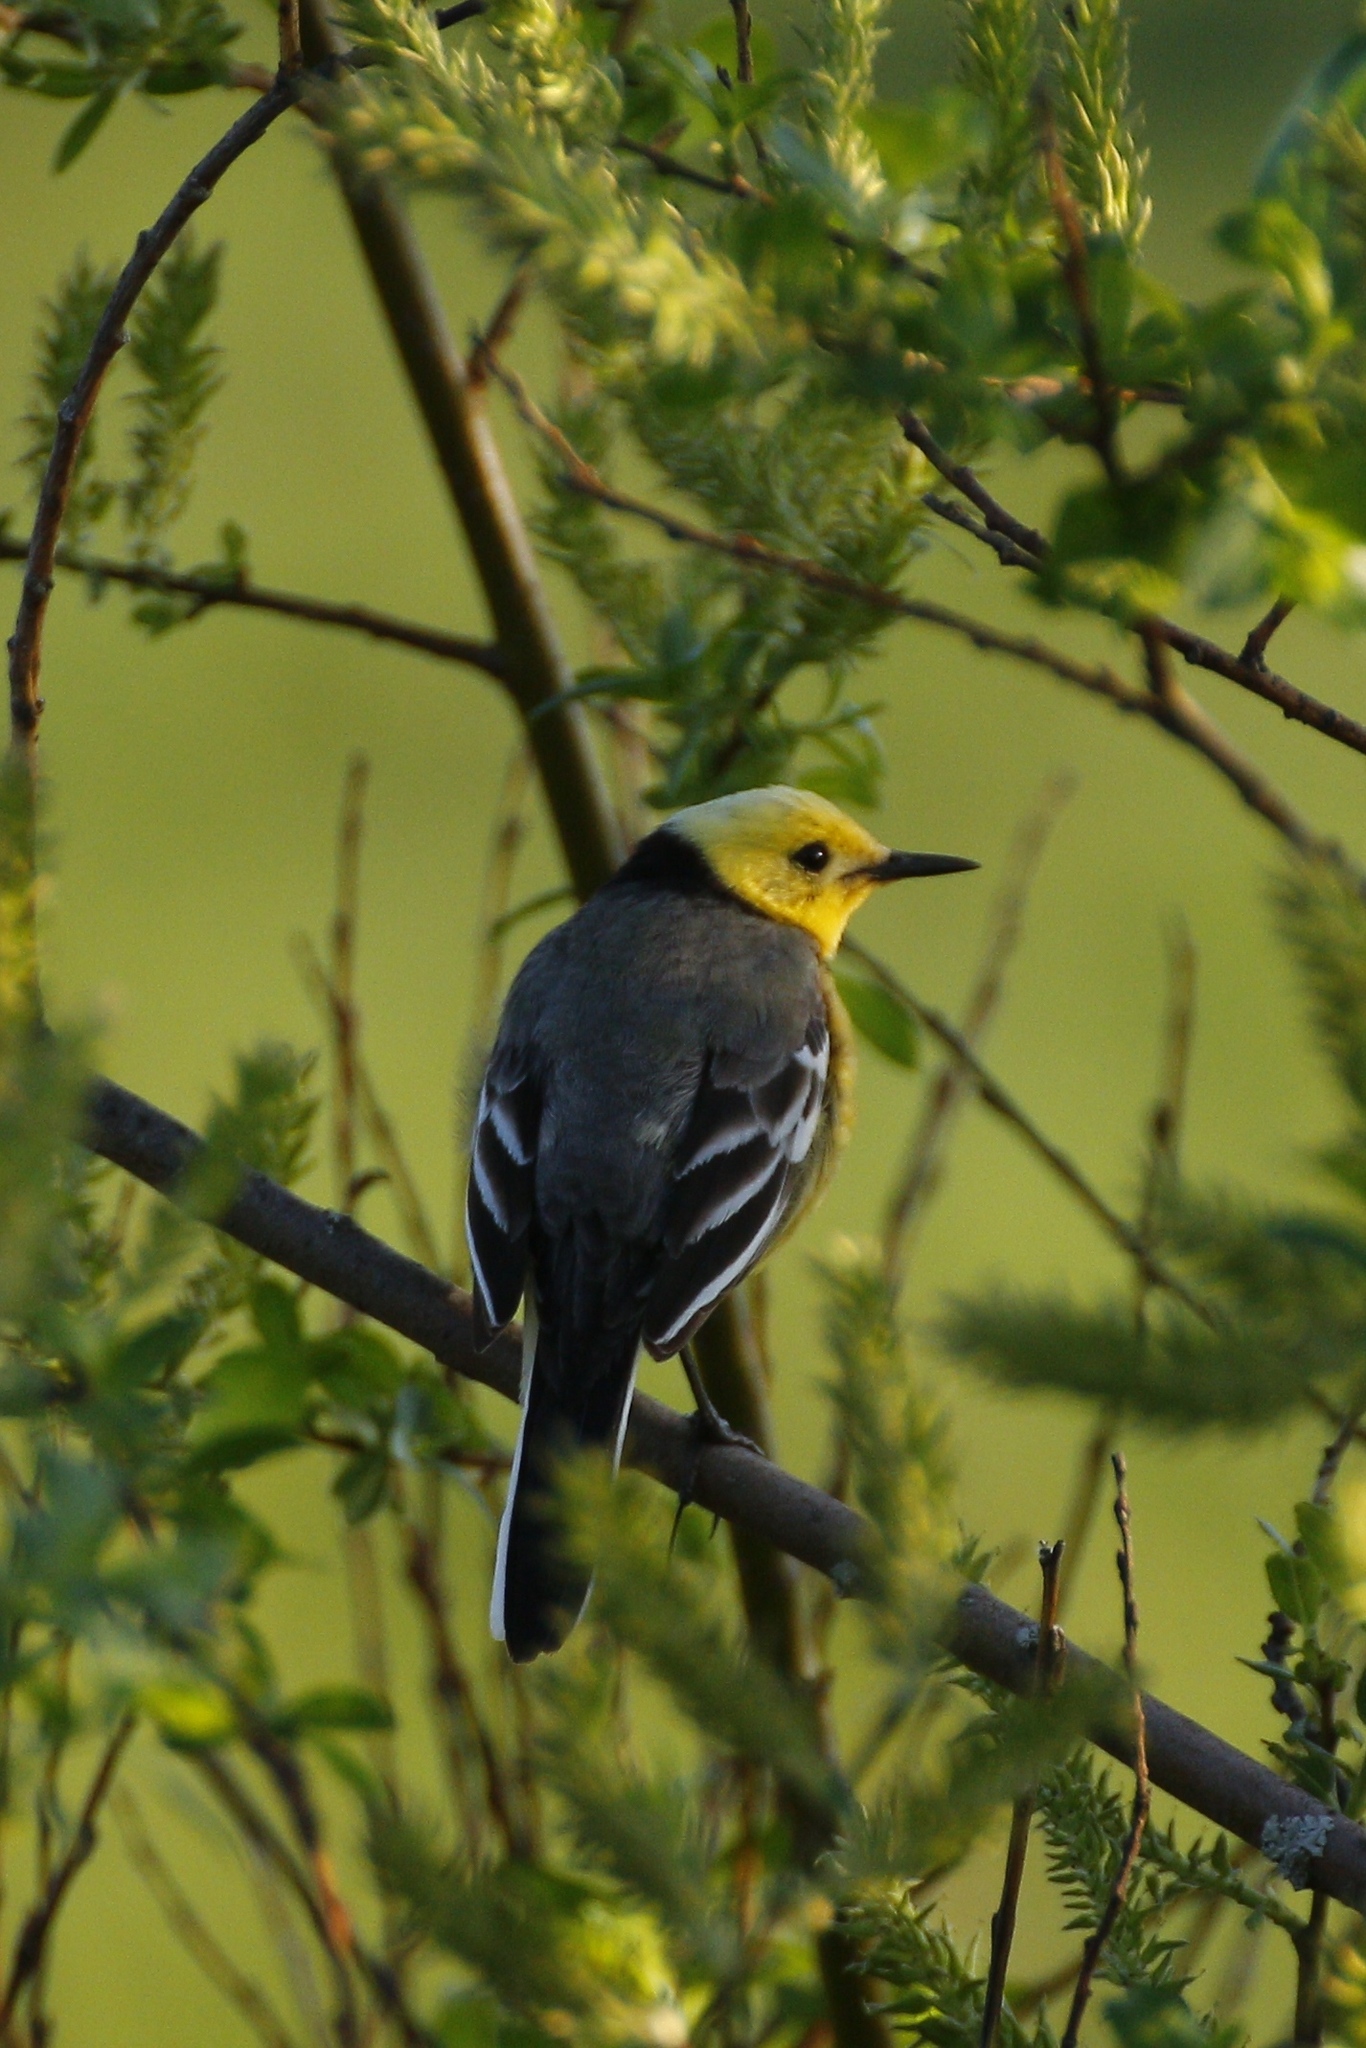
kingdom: Animalia
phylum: Chordata
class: Aves
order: Passeriformes
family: Motacillidae
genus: Motacilla
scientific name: Motacilla citreola
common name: Citrine wagtail
